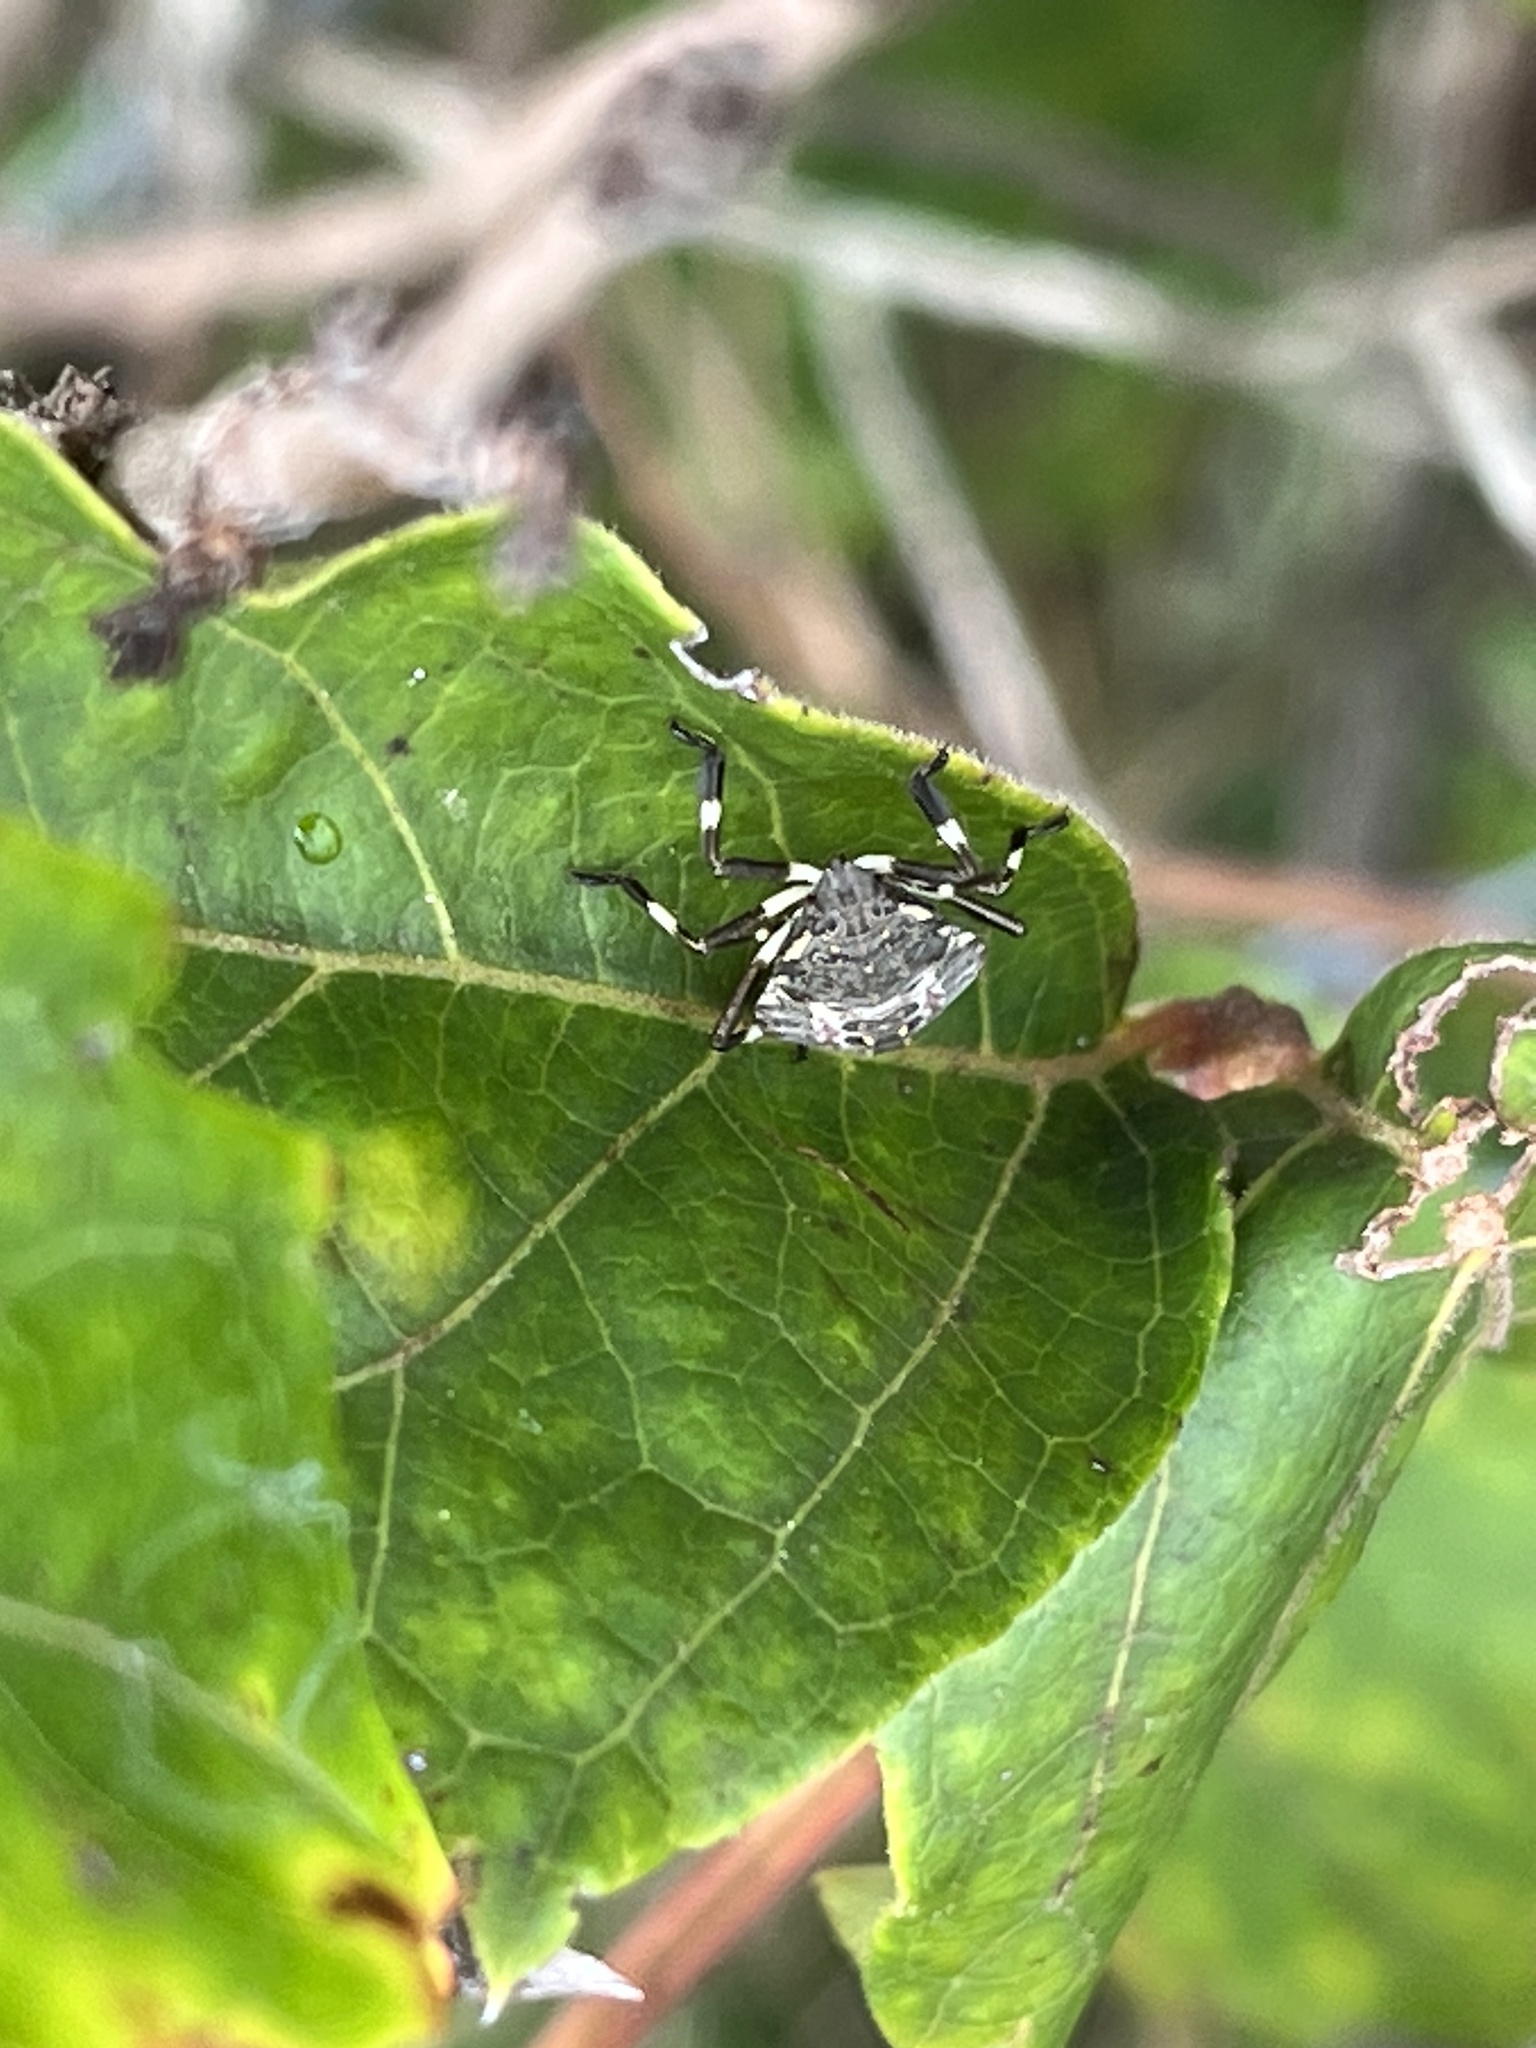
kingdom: Animalia
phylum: Arthropoda
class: Insecta
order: Hemiptera
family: Pentatomidae
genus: Halyomorpha
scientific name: Halyomorpha halys
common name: Brown marmorated stink bug
